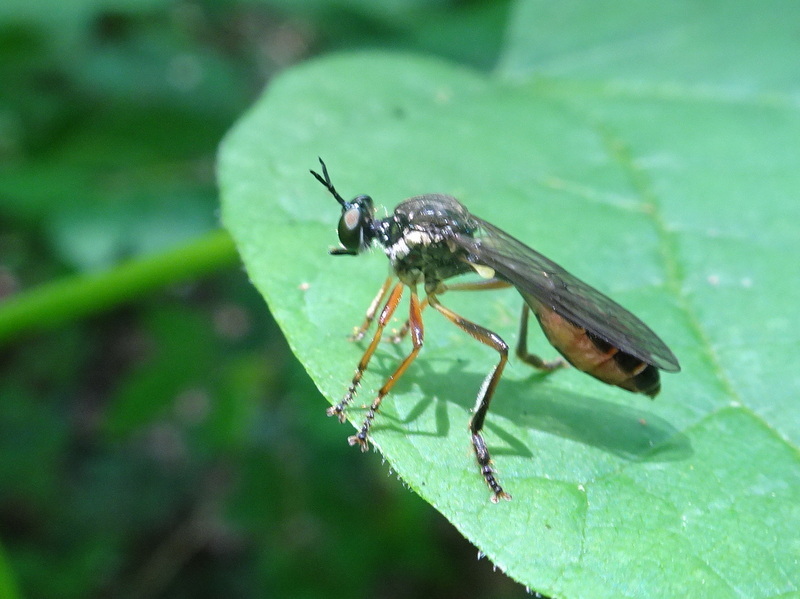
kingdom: Animalia
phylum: Arthropoda
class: Insecta
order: Diptera
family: Asilidae
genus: Dioctria
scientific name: Dioctria hyalipennis
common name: Stripe-legged robberfly
